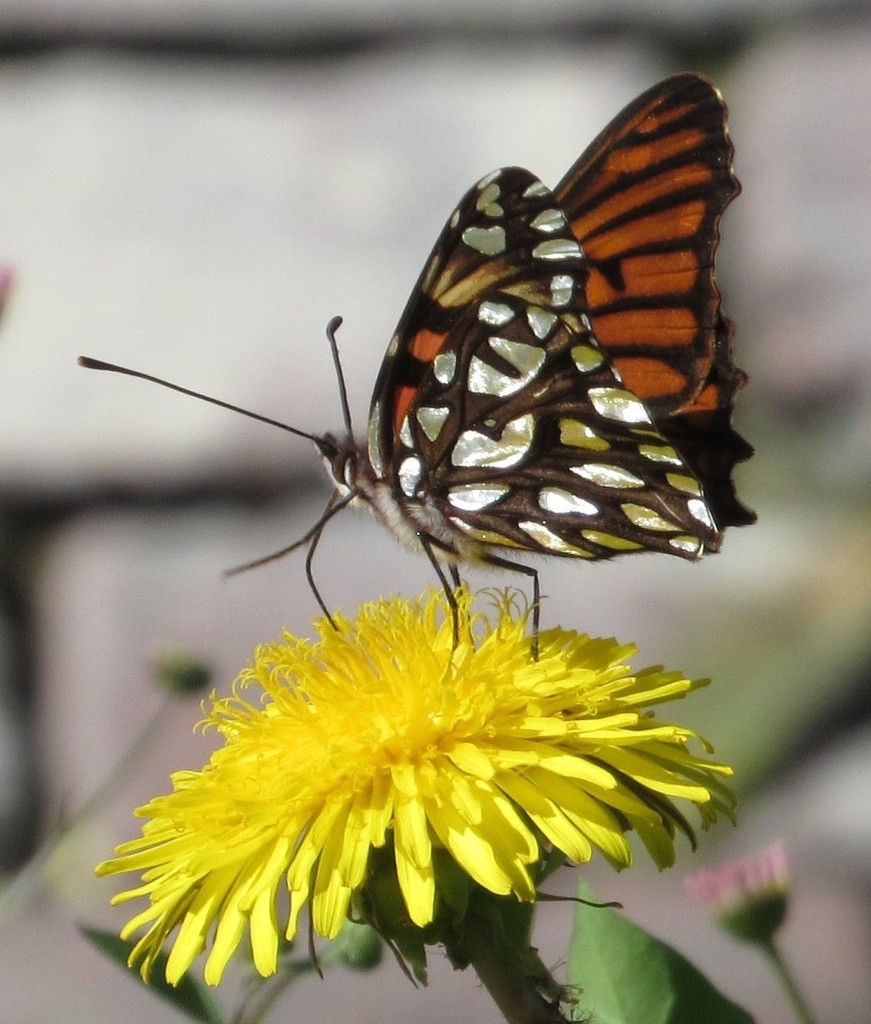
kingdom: Plantae
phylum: Tracheophyta
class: Magnoliopsida
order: Asterales
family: Asteraceae
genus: Taraxacum
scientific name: Taraxacum officinale
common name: Common dandelion
